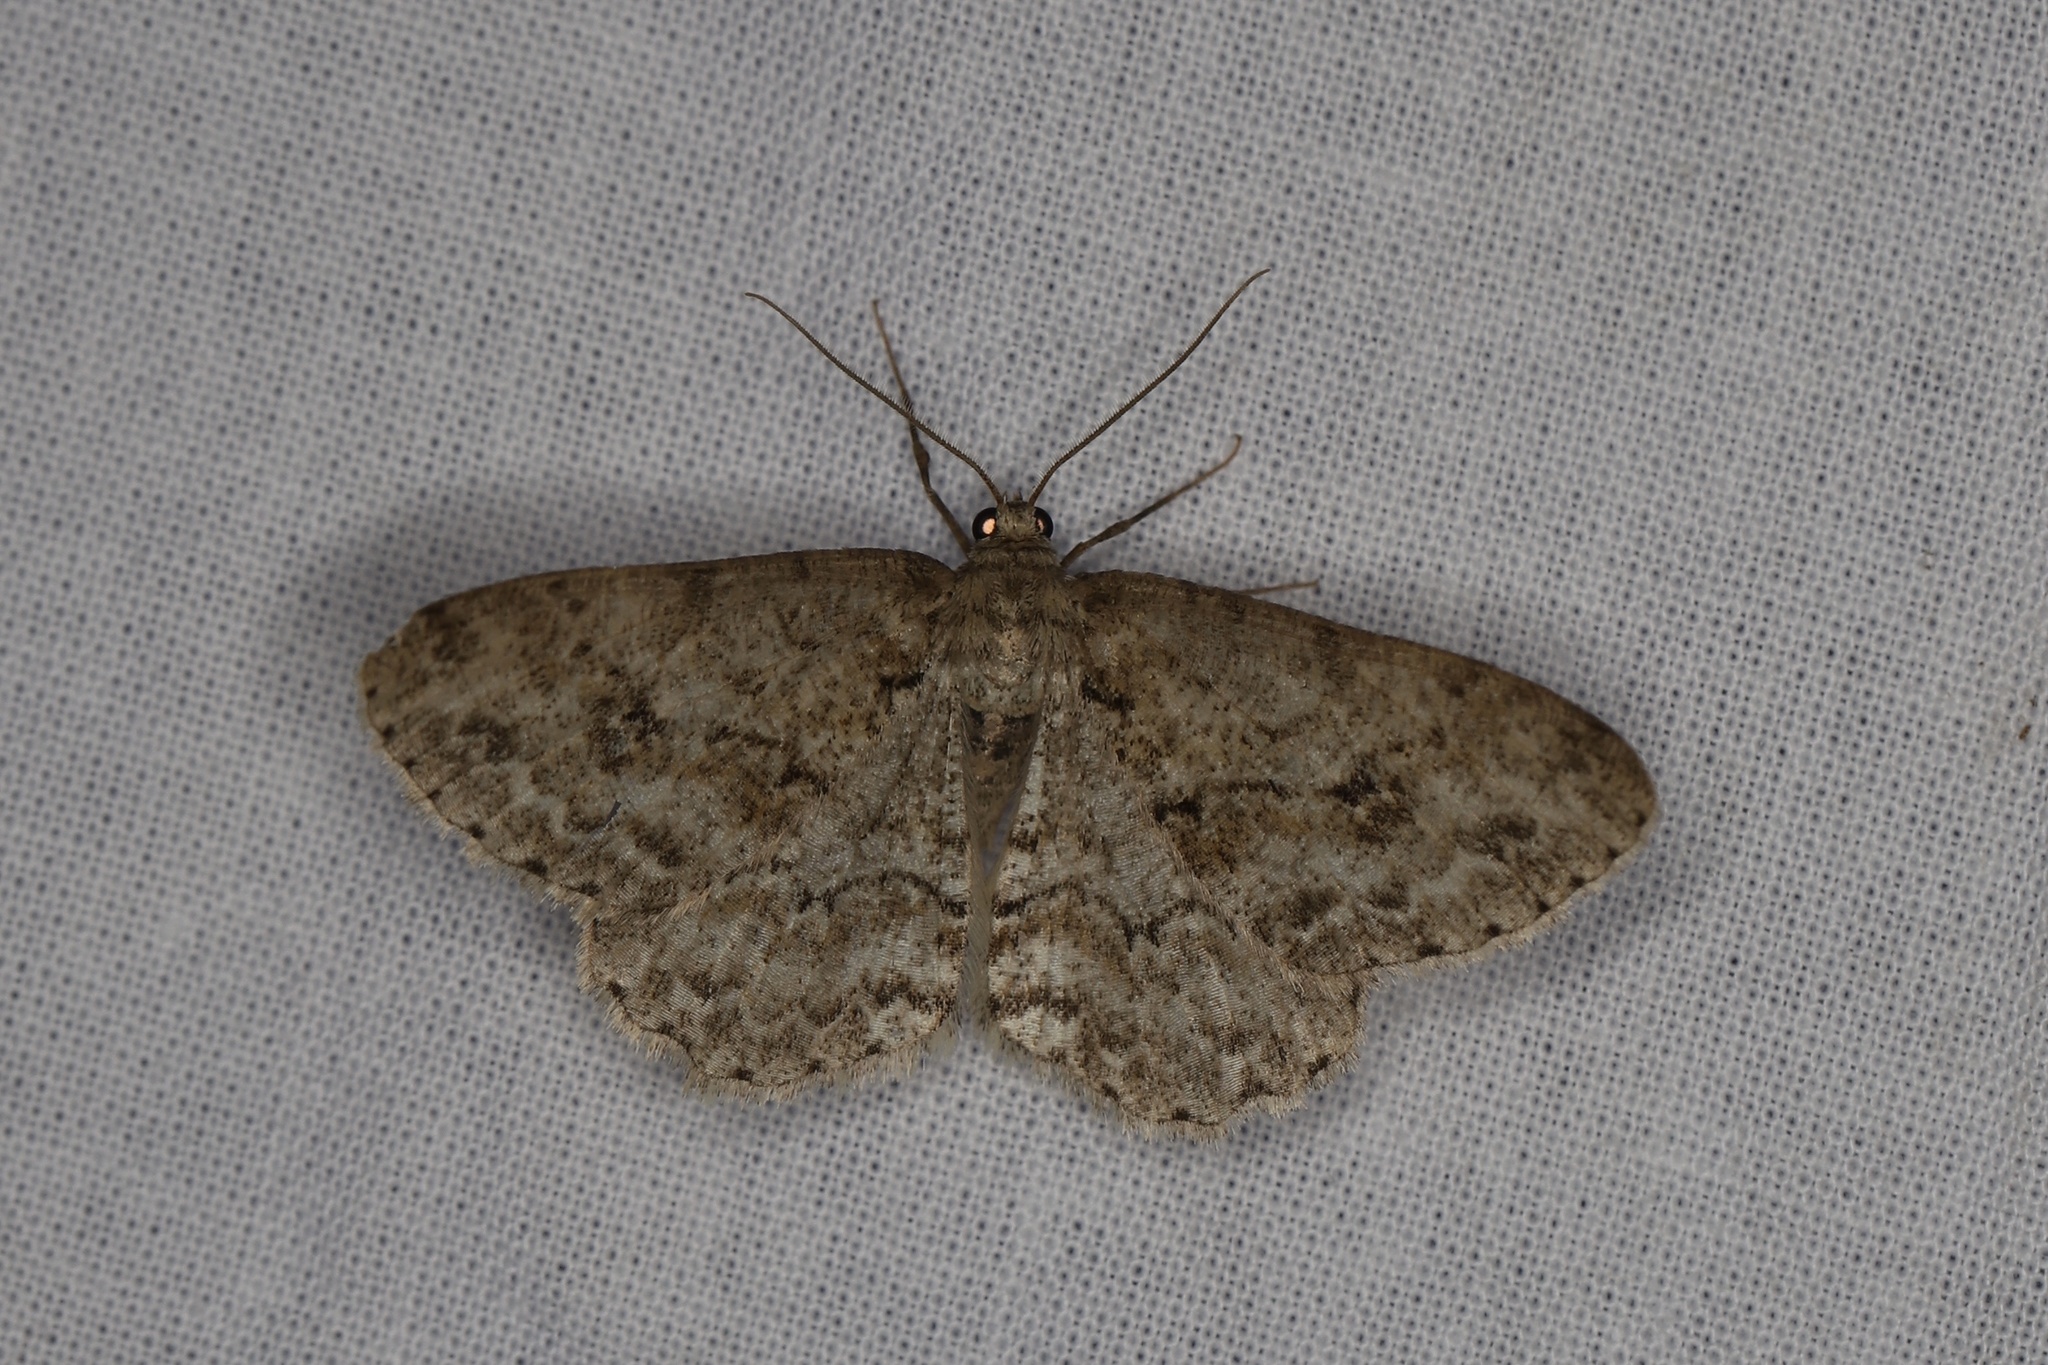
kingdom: Animalia
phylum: Arthropoda
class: Insecta
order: Lepidoptera
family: Geometridae
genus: Ectropis
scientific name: Ectropis crepuscularia
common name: Engrailed
